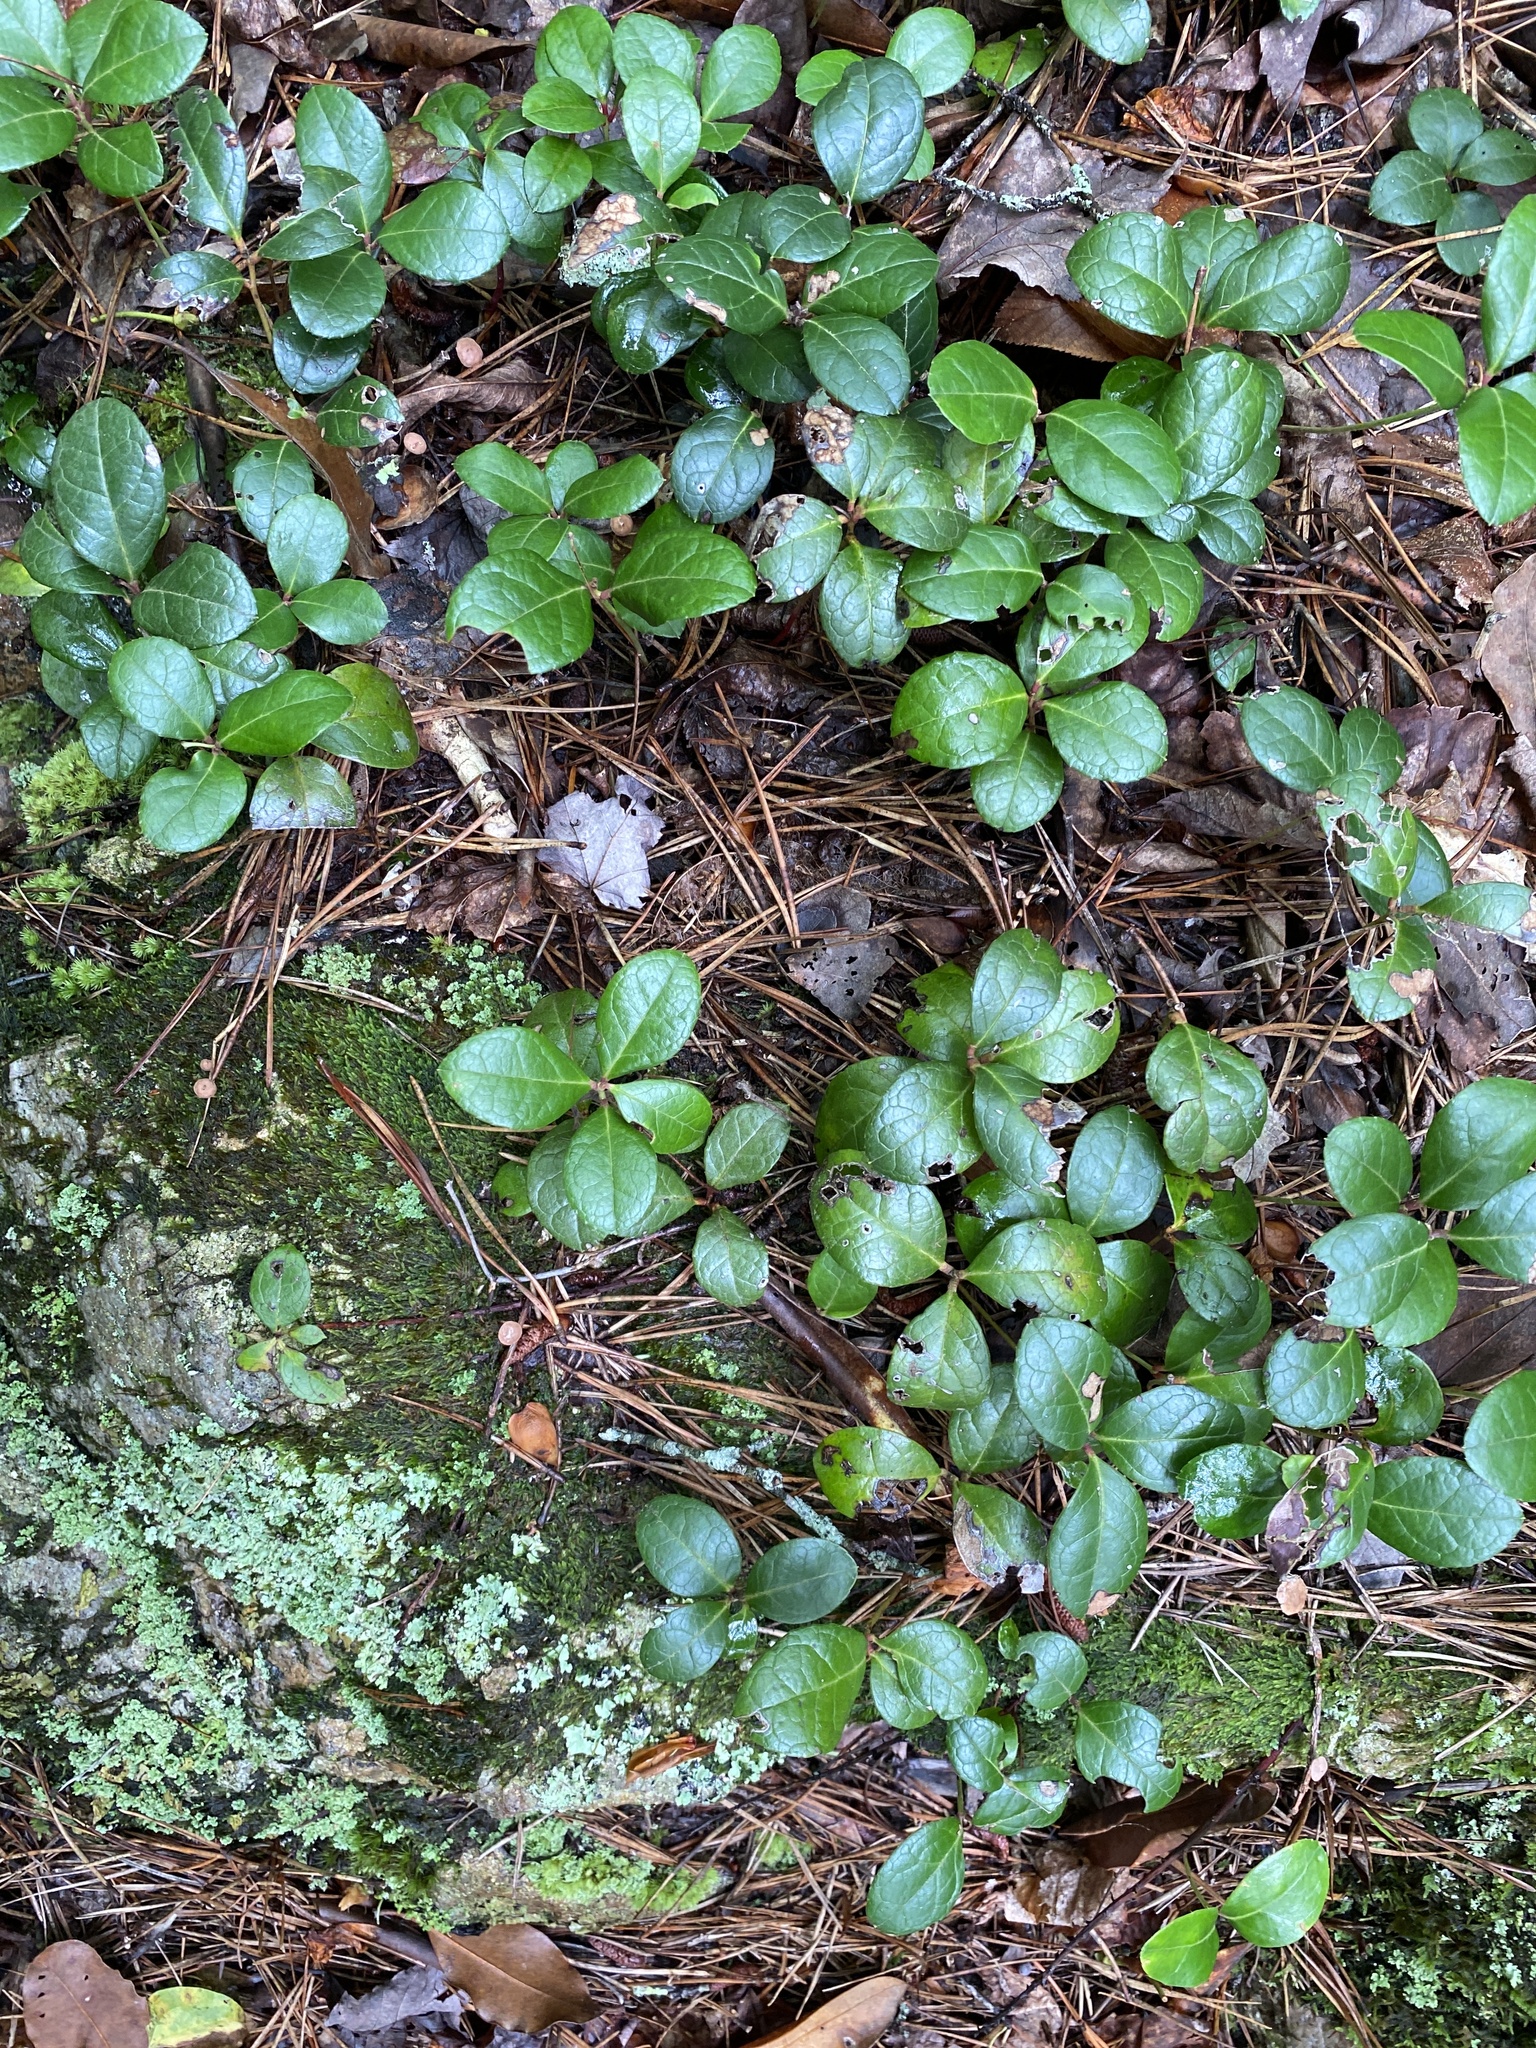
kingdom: Plantae
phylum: Tracheophyta
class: Magnoliopsida
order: Ericales
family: Ericaceae
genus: Gaultheria
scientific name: Gaultheria procumbens
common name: Checkerberry
